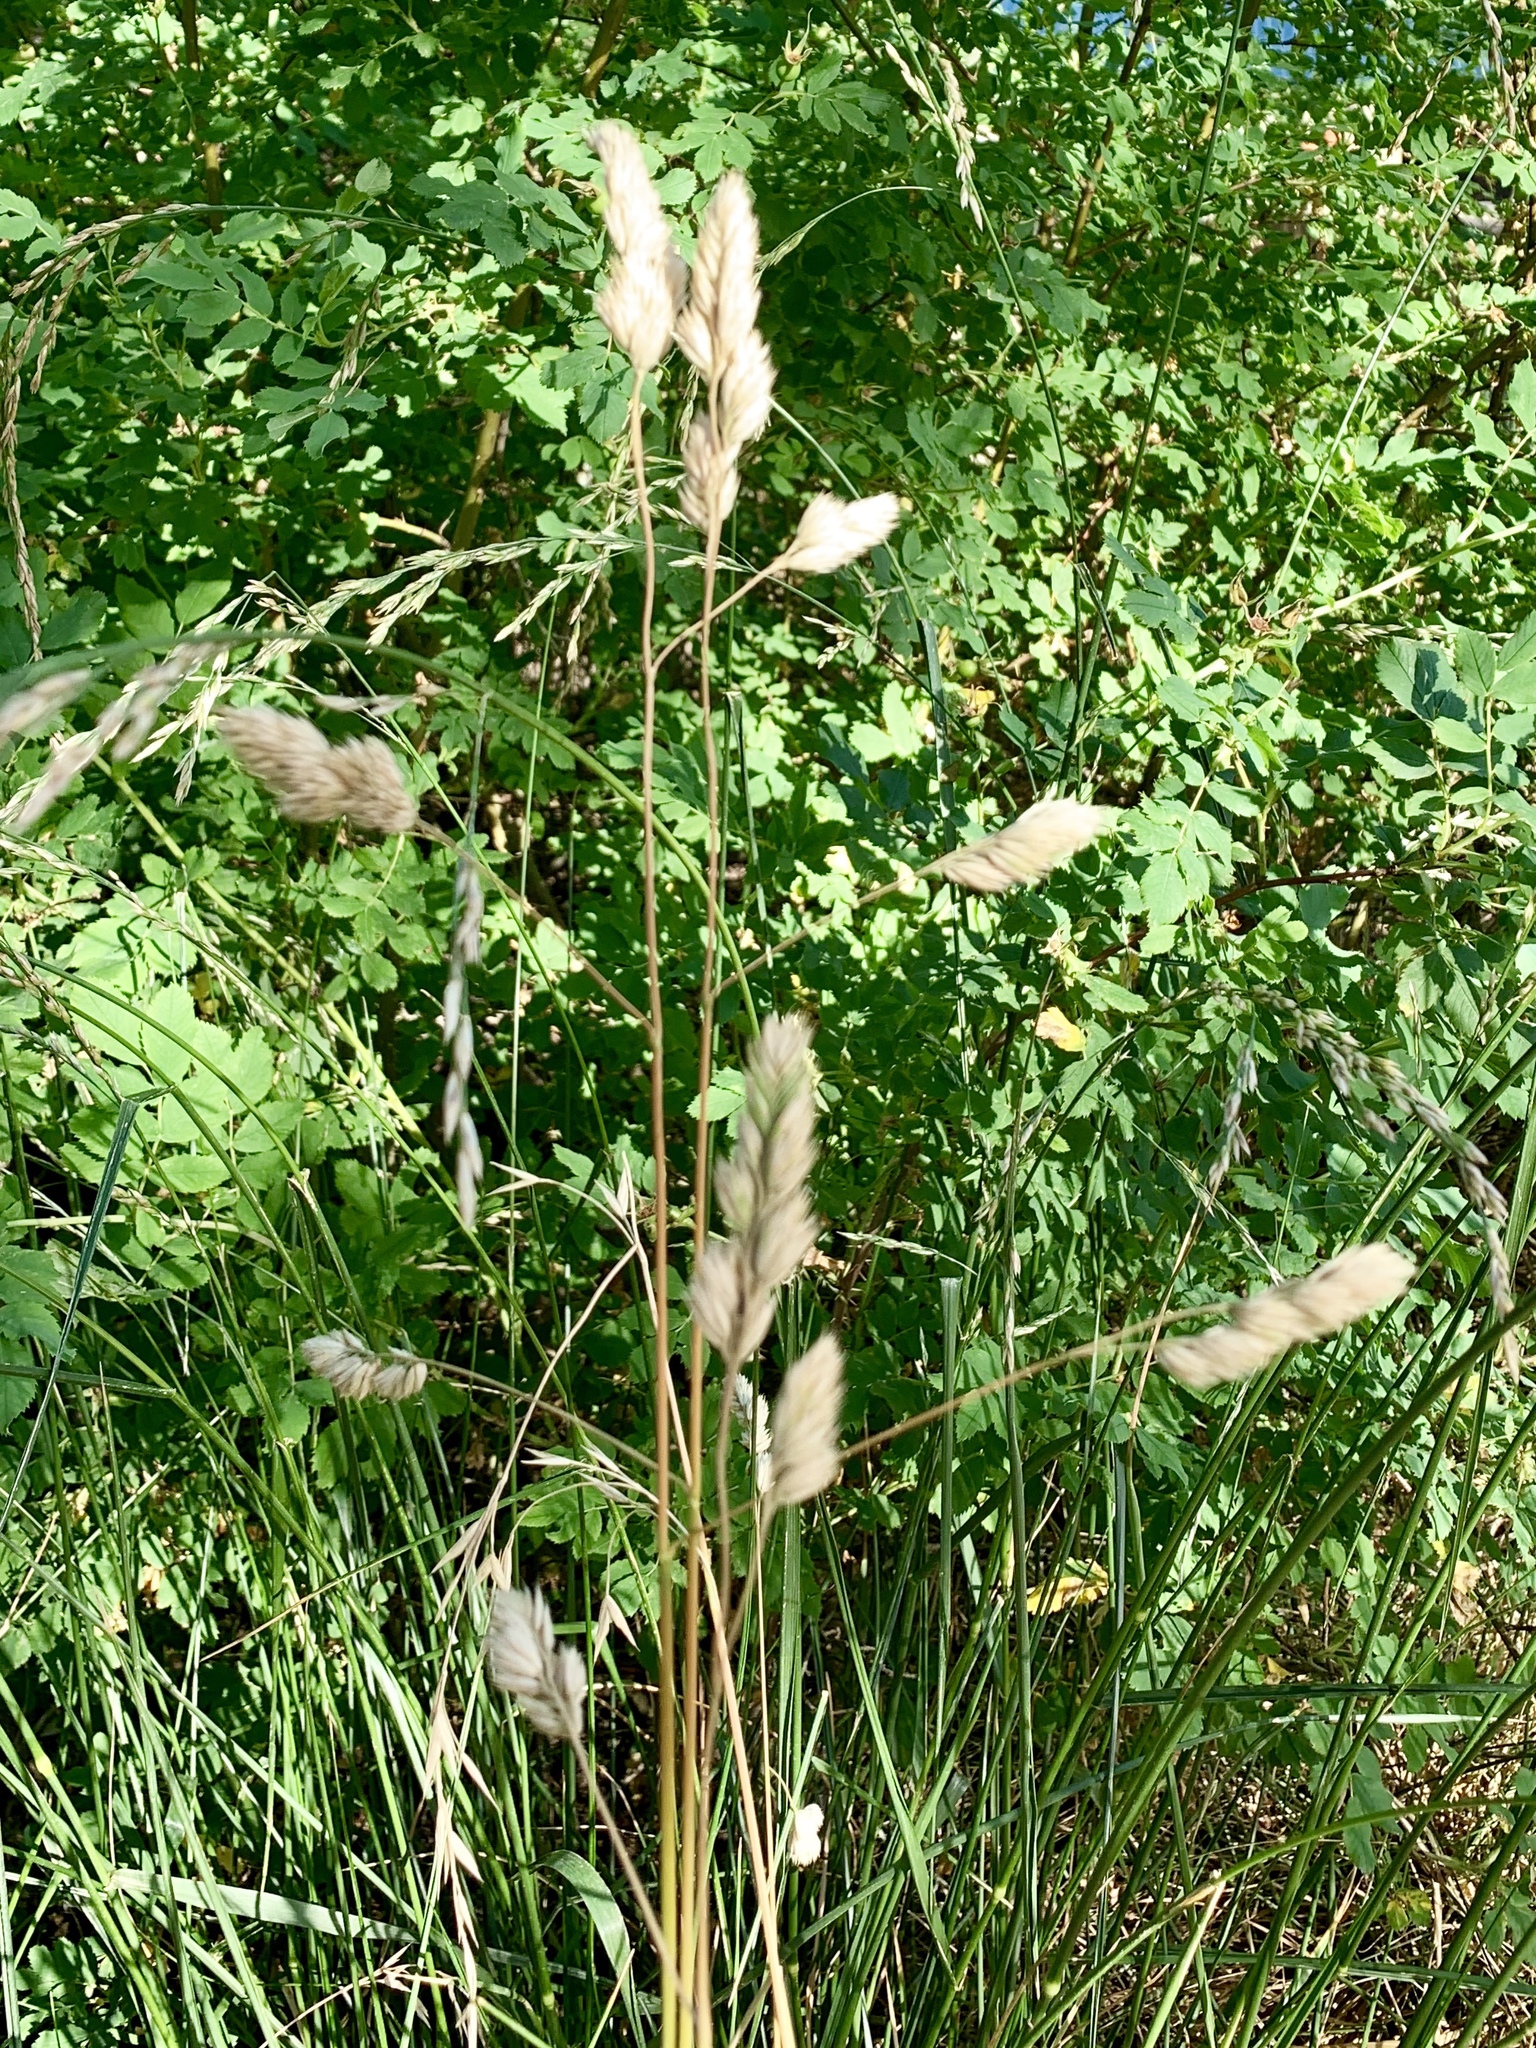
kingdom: Plantae
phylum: Tracheophyta
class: Liliopsida
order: Poales
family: Poaceae
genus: Dactylis
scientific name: Dactylis glomerata
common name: Orchardgrass
